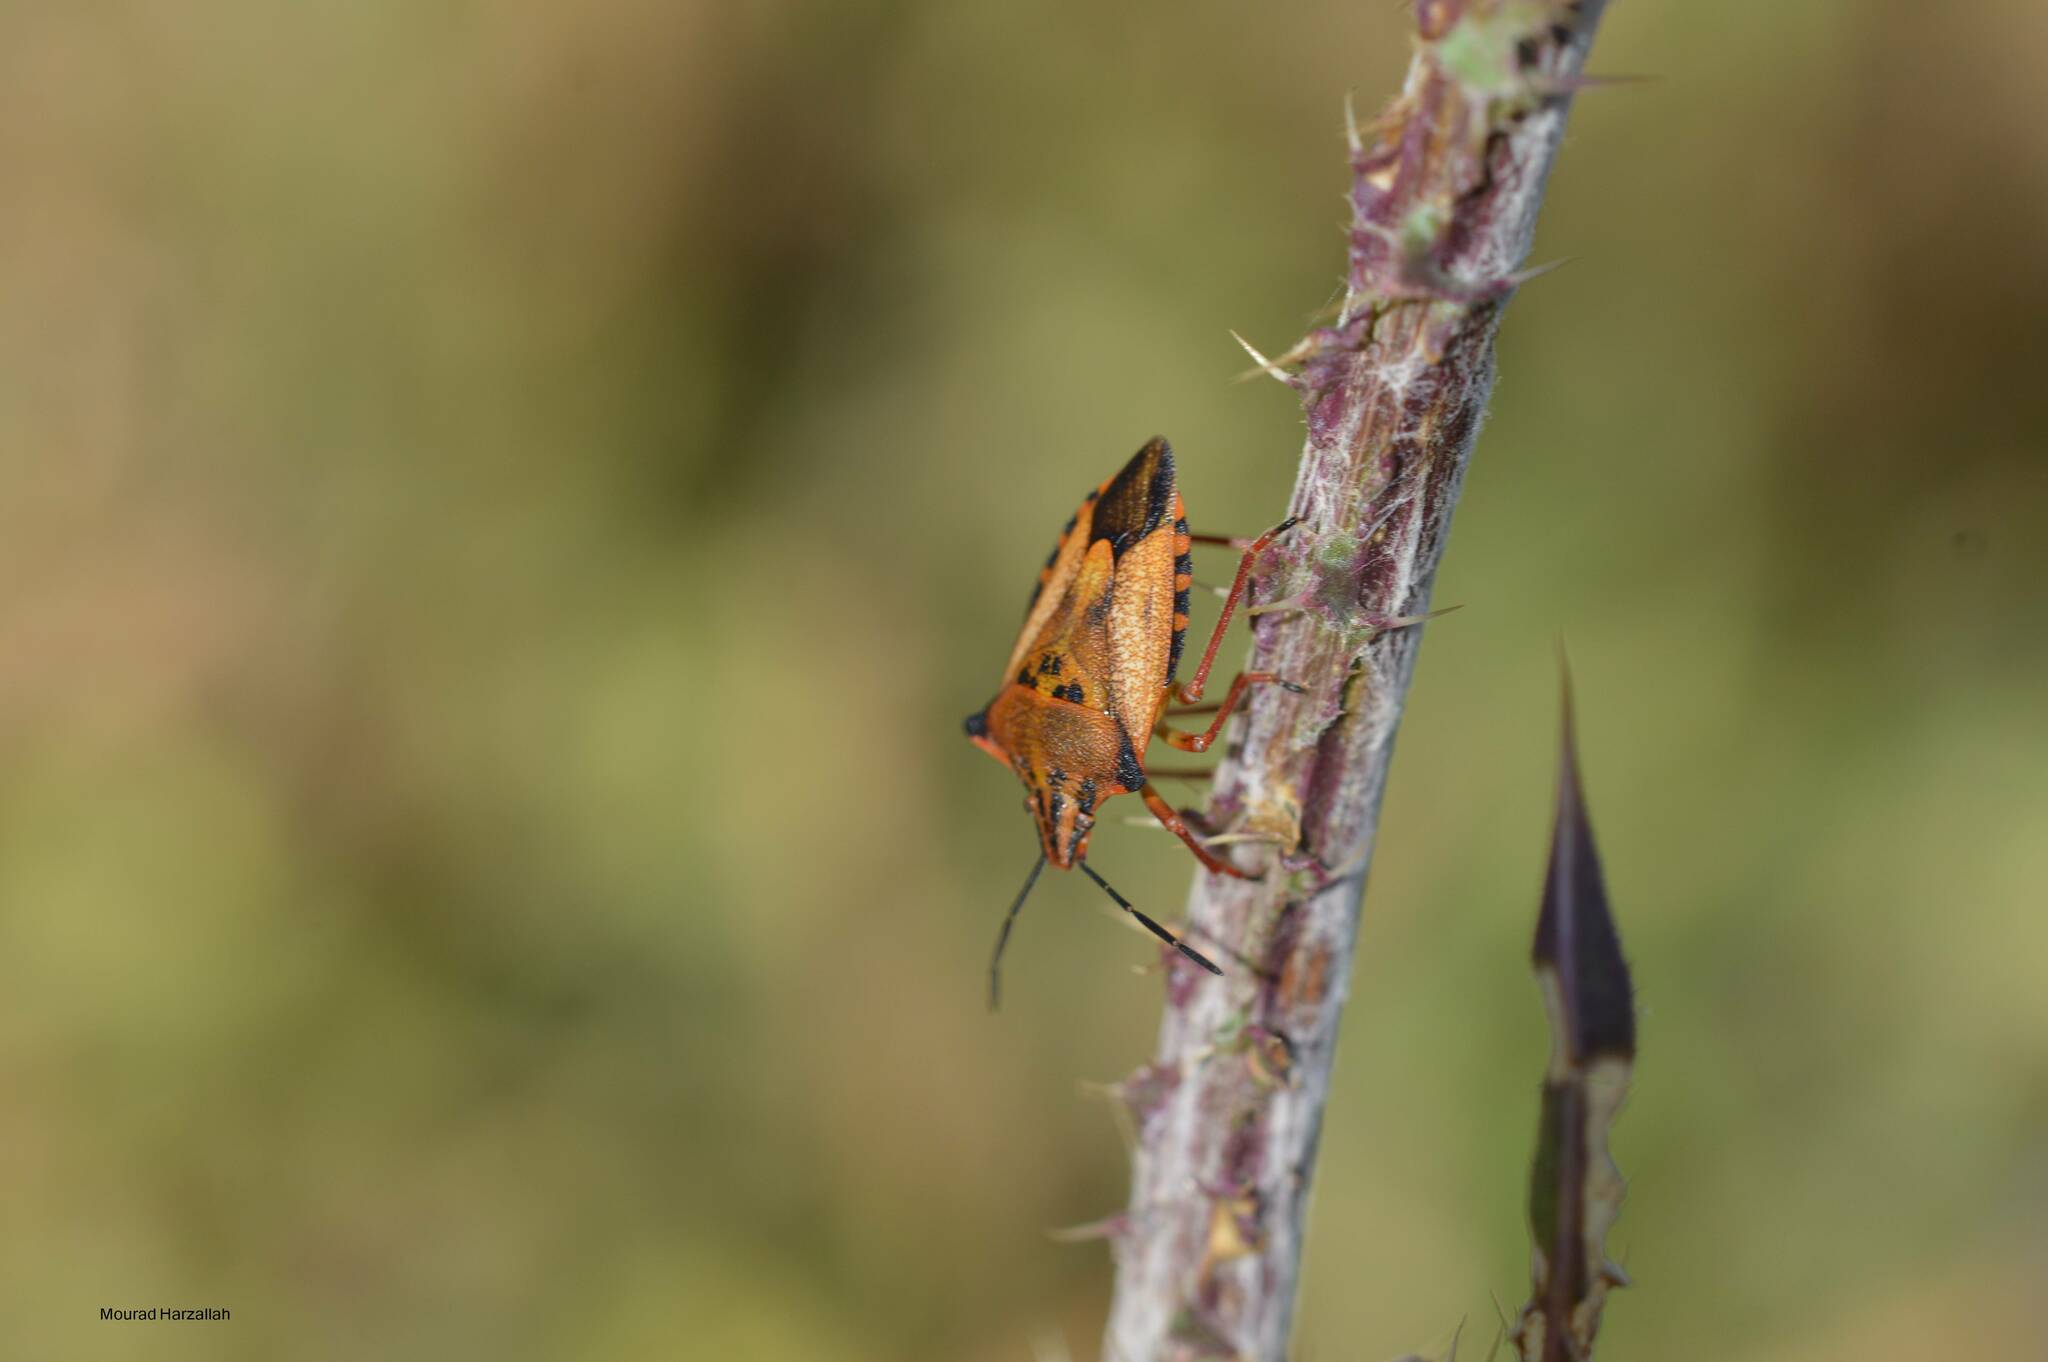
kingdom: Animalia
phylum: Arthropoda
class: Insecta
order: Hemiptera
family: Pentatomidae
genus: Carpocoris
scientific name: Carpocoris mediterraneus
